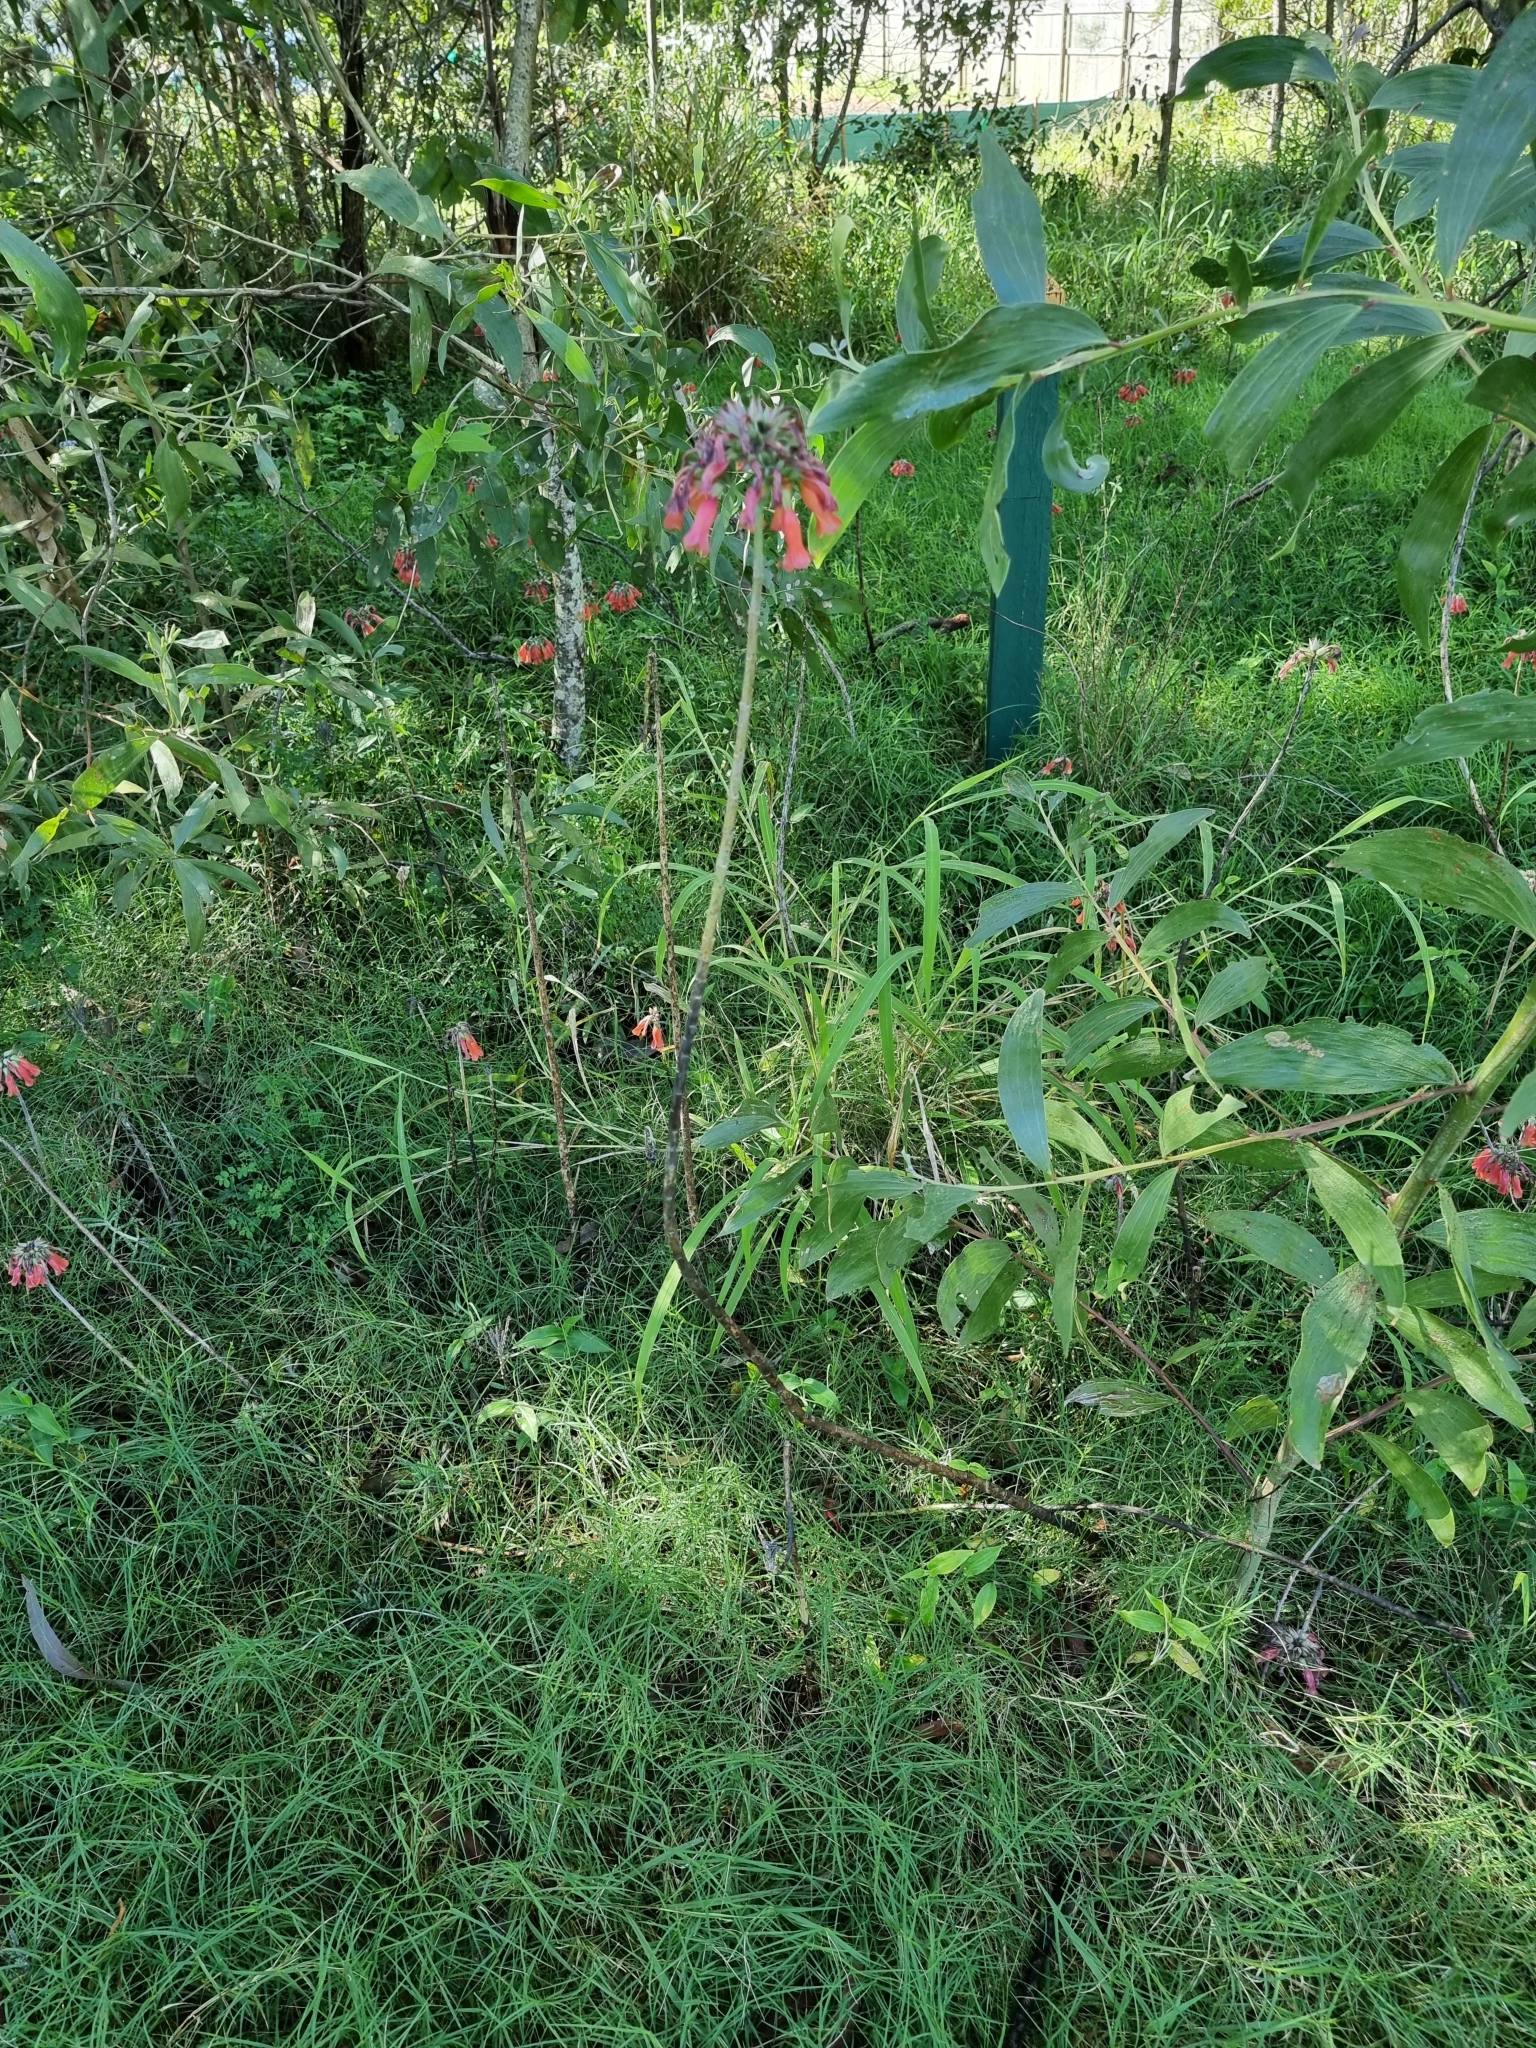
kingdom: Plantae
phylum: Tracheophyta
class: Magnoliopsida
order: Saxifragales
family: Crassulaceae
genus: Kalanchoe
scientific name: Kalanchoe delagoensis
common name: Chandelier plant
